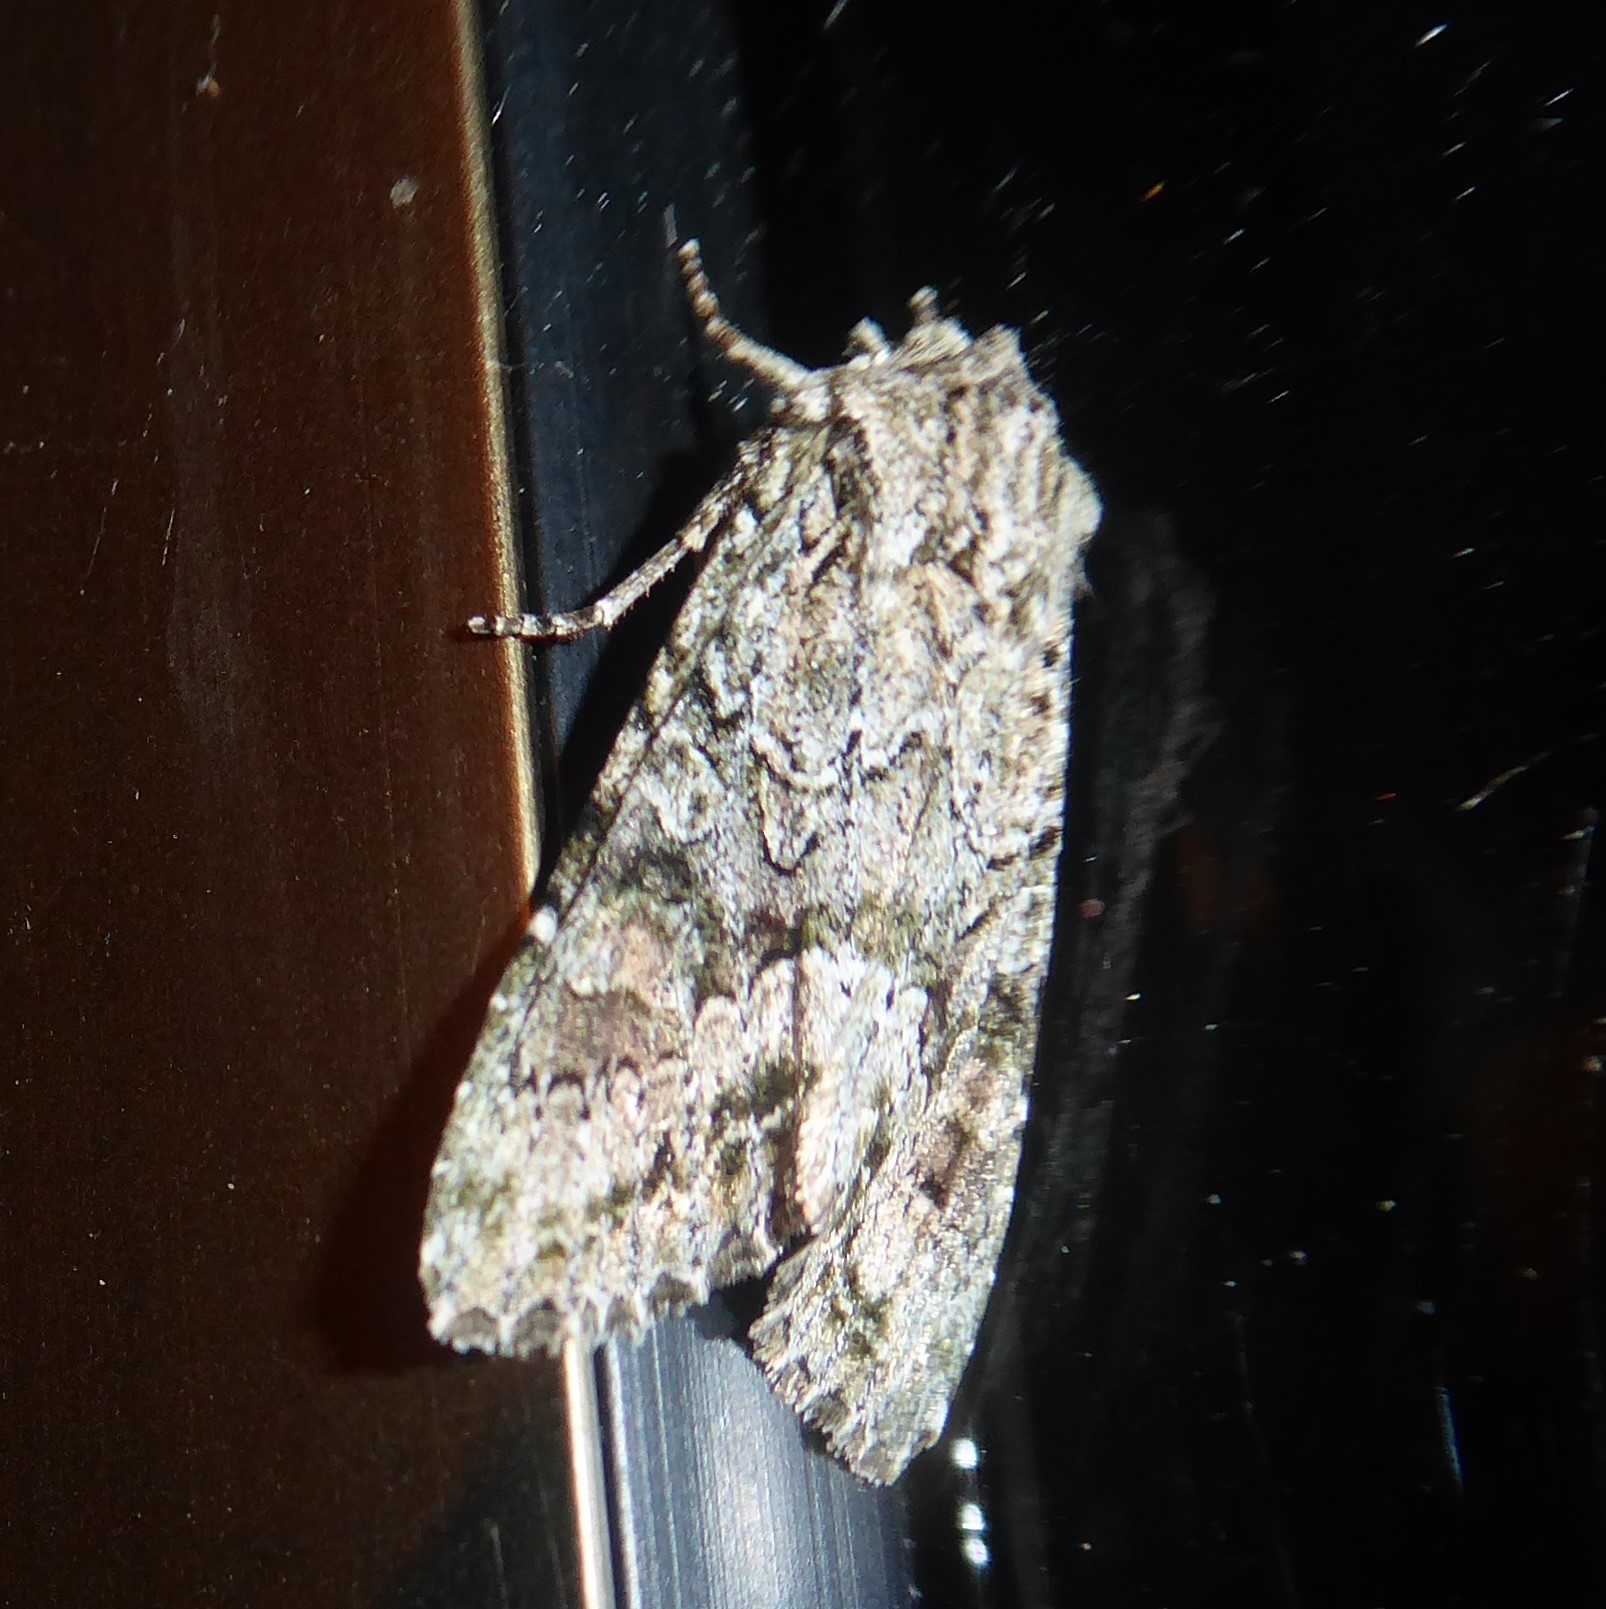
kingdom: Animalia
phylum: Arthropoda
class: Insecta
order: Lepidoptera
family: Noctuidae
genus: Ichneutica
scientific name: Ichneutica mutans
